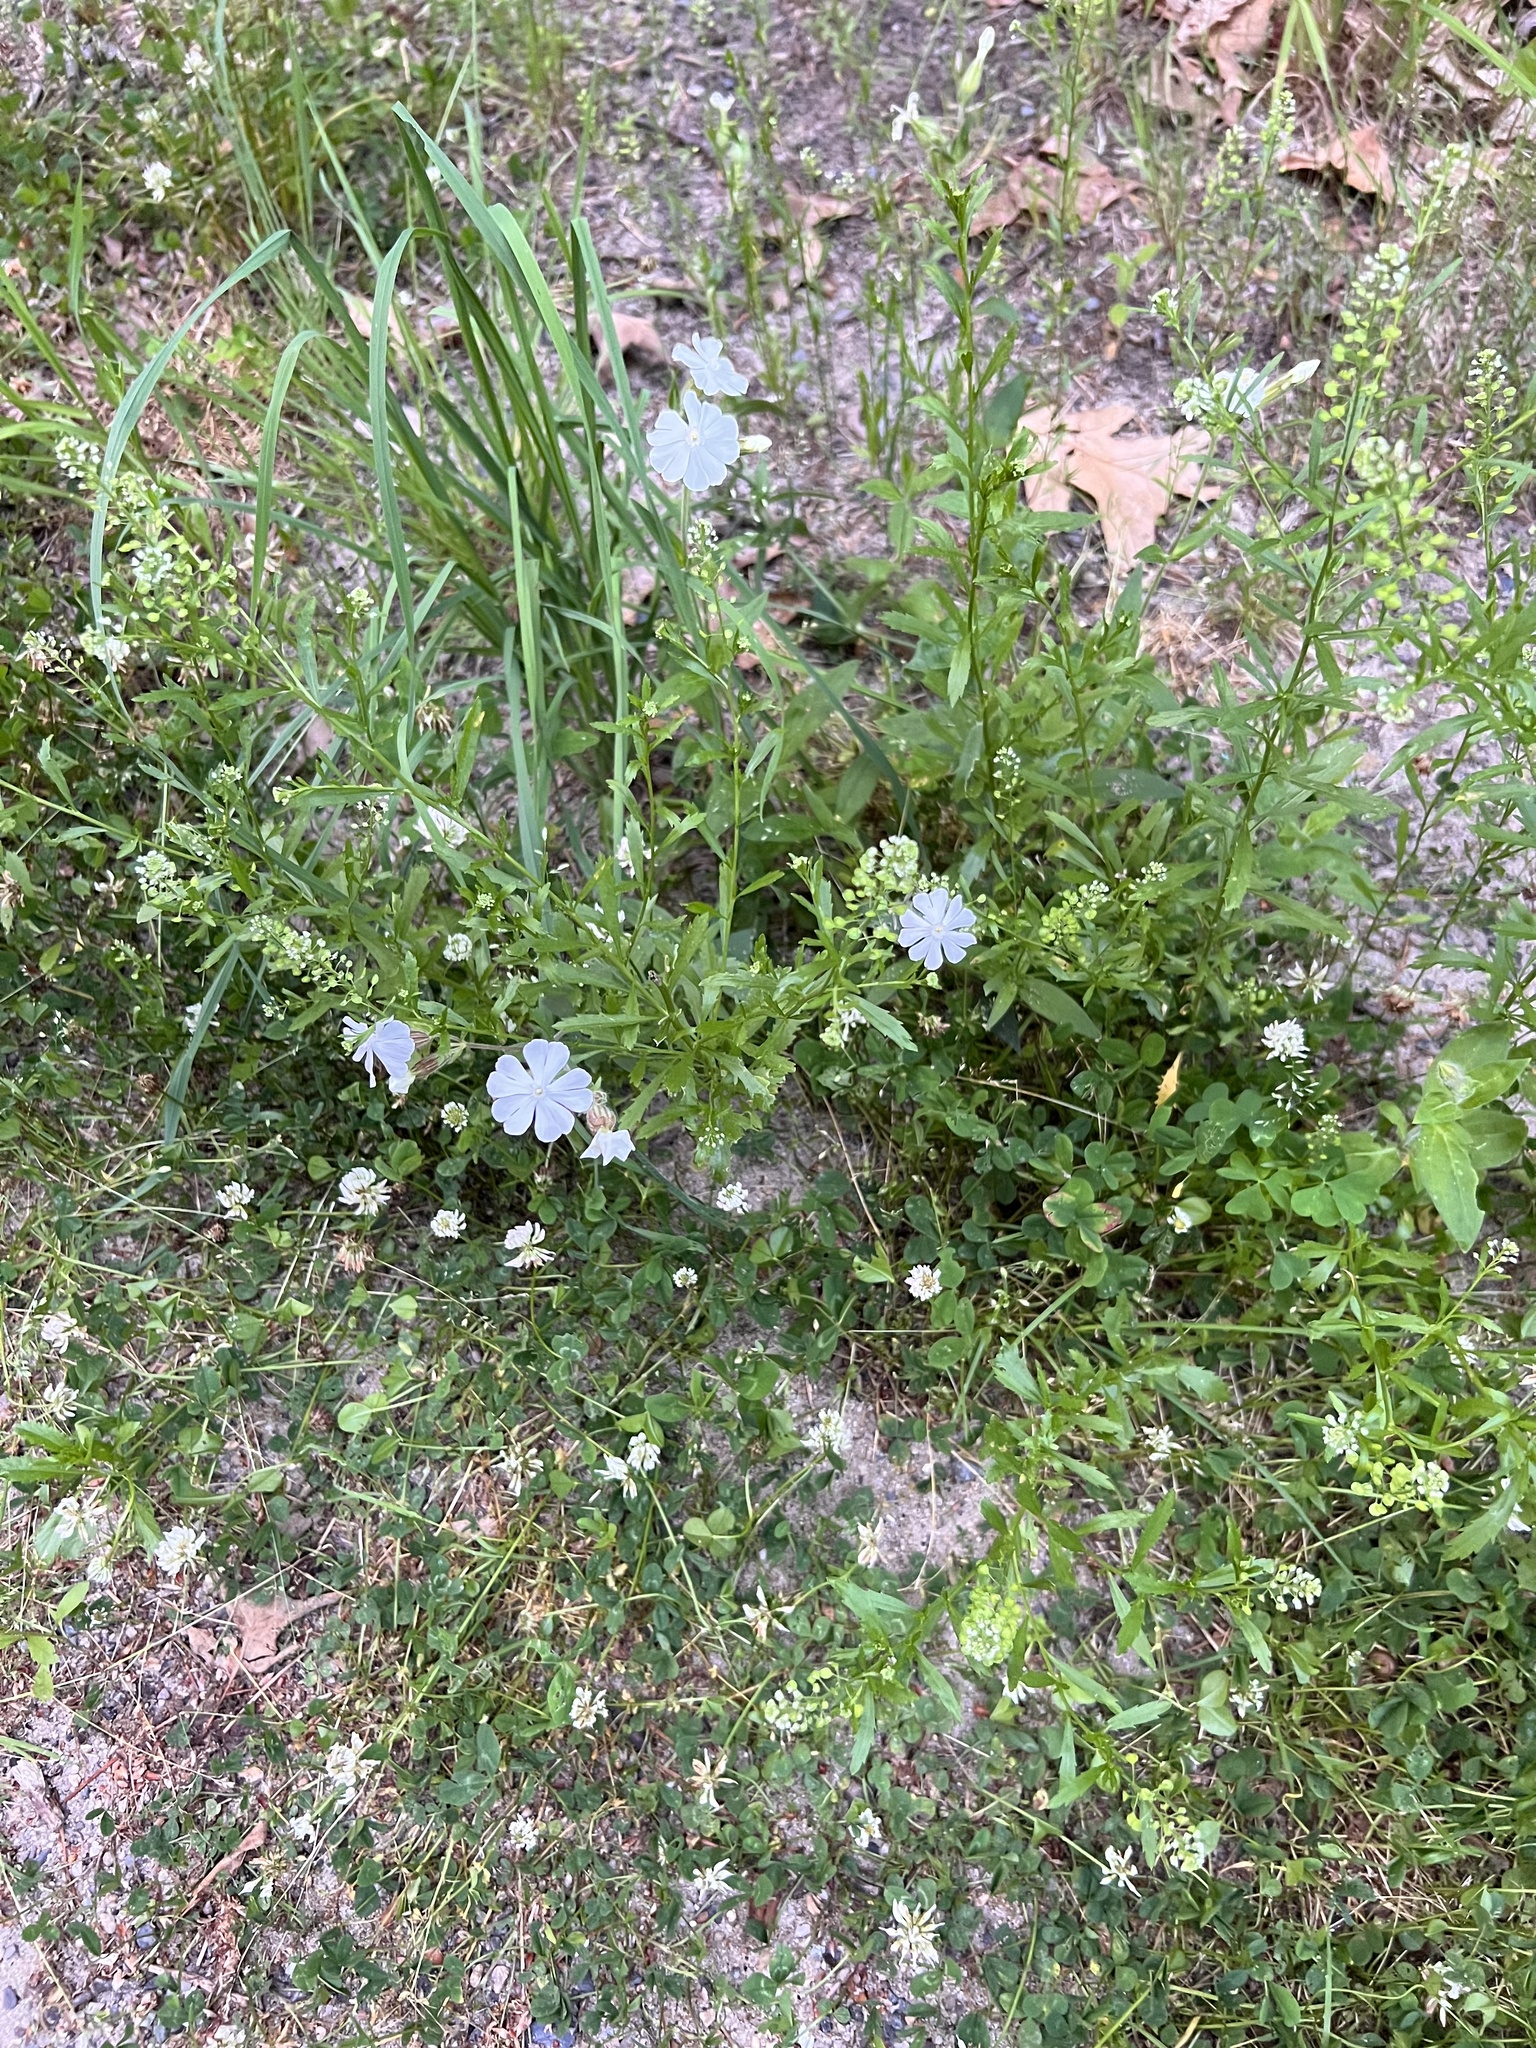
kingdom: Plantae
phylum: Tracheophyta
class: Magnoliopsida
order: Caryophyllales
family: Caryophyllaceae
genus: Silene
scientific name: Silene latifolia
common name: White campion
